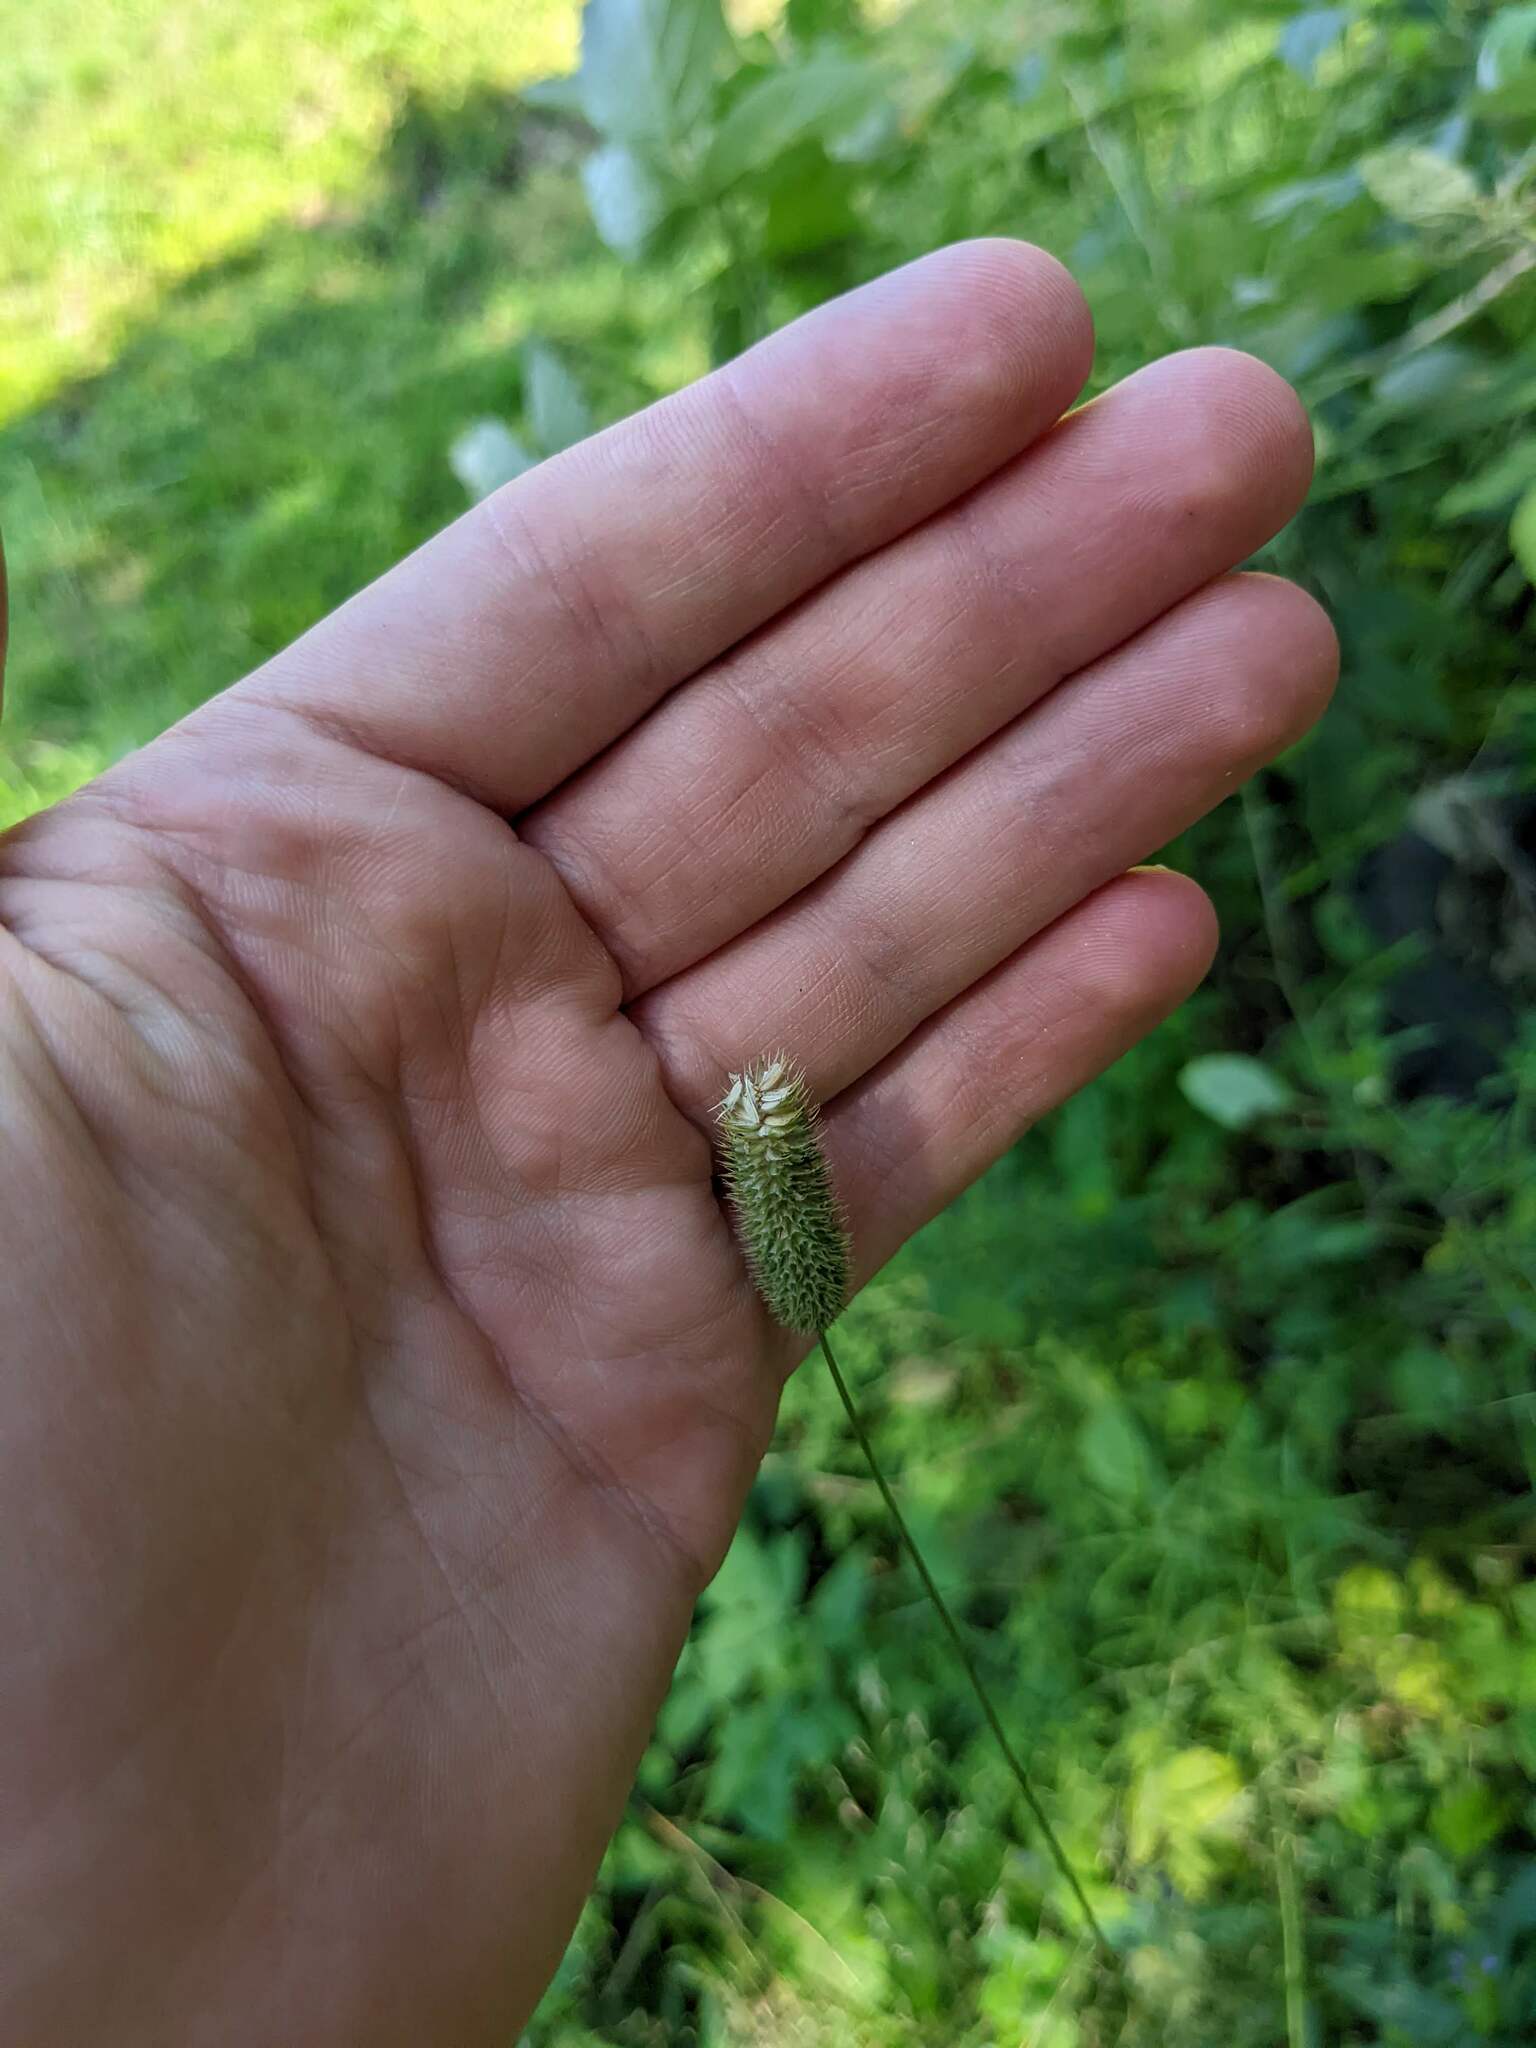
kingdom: Plantae
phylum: Tracheophyta
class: Liliopsida
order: Poales
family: Poaceae
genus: Phleum
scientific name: Phleum pratense
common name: Timothy grass
